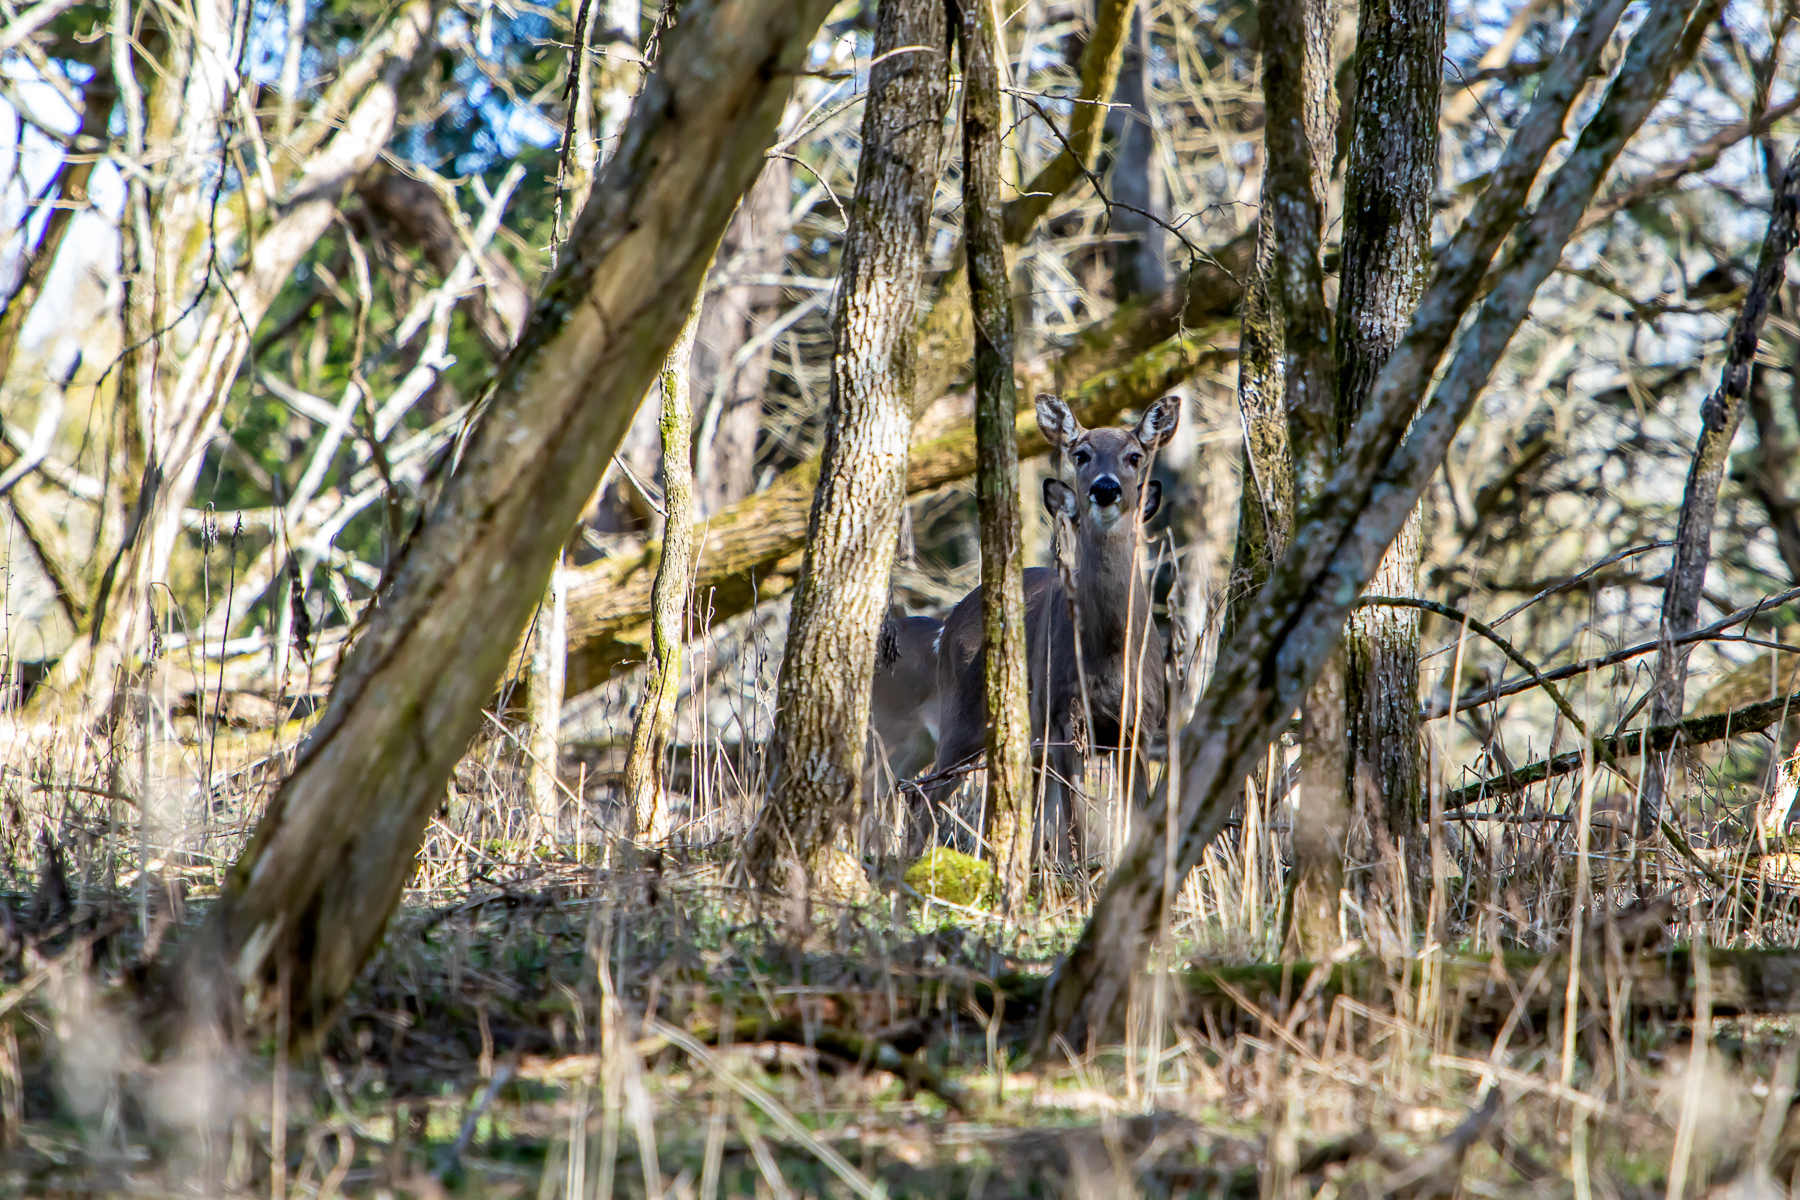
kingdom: Animalia
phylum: Chordata
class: Mammalia
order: Artiodactyla
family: Cervidae
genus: Odocoileus
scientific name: Odocoileus virginianus
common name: White-tailed deer
